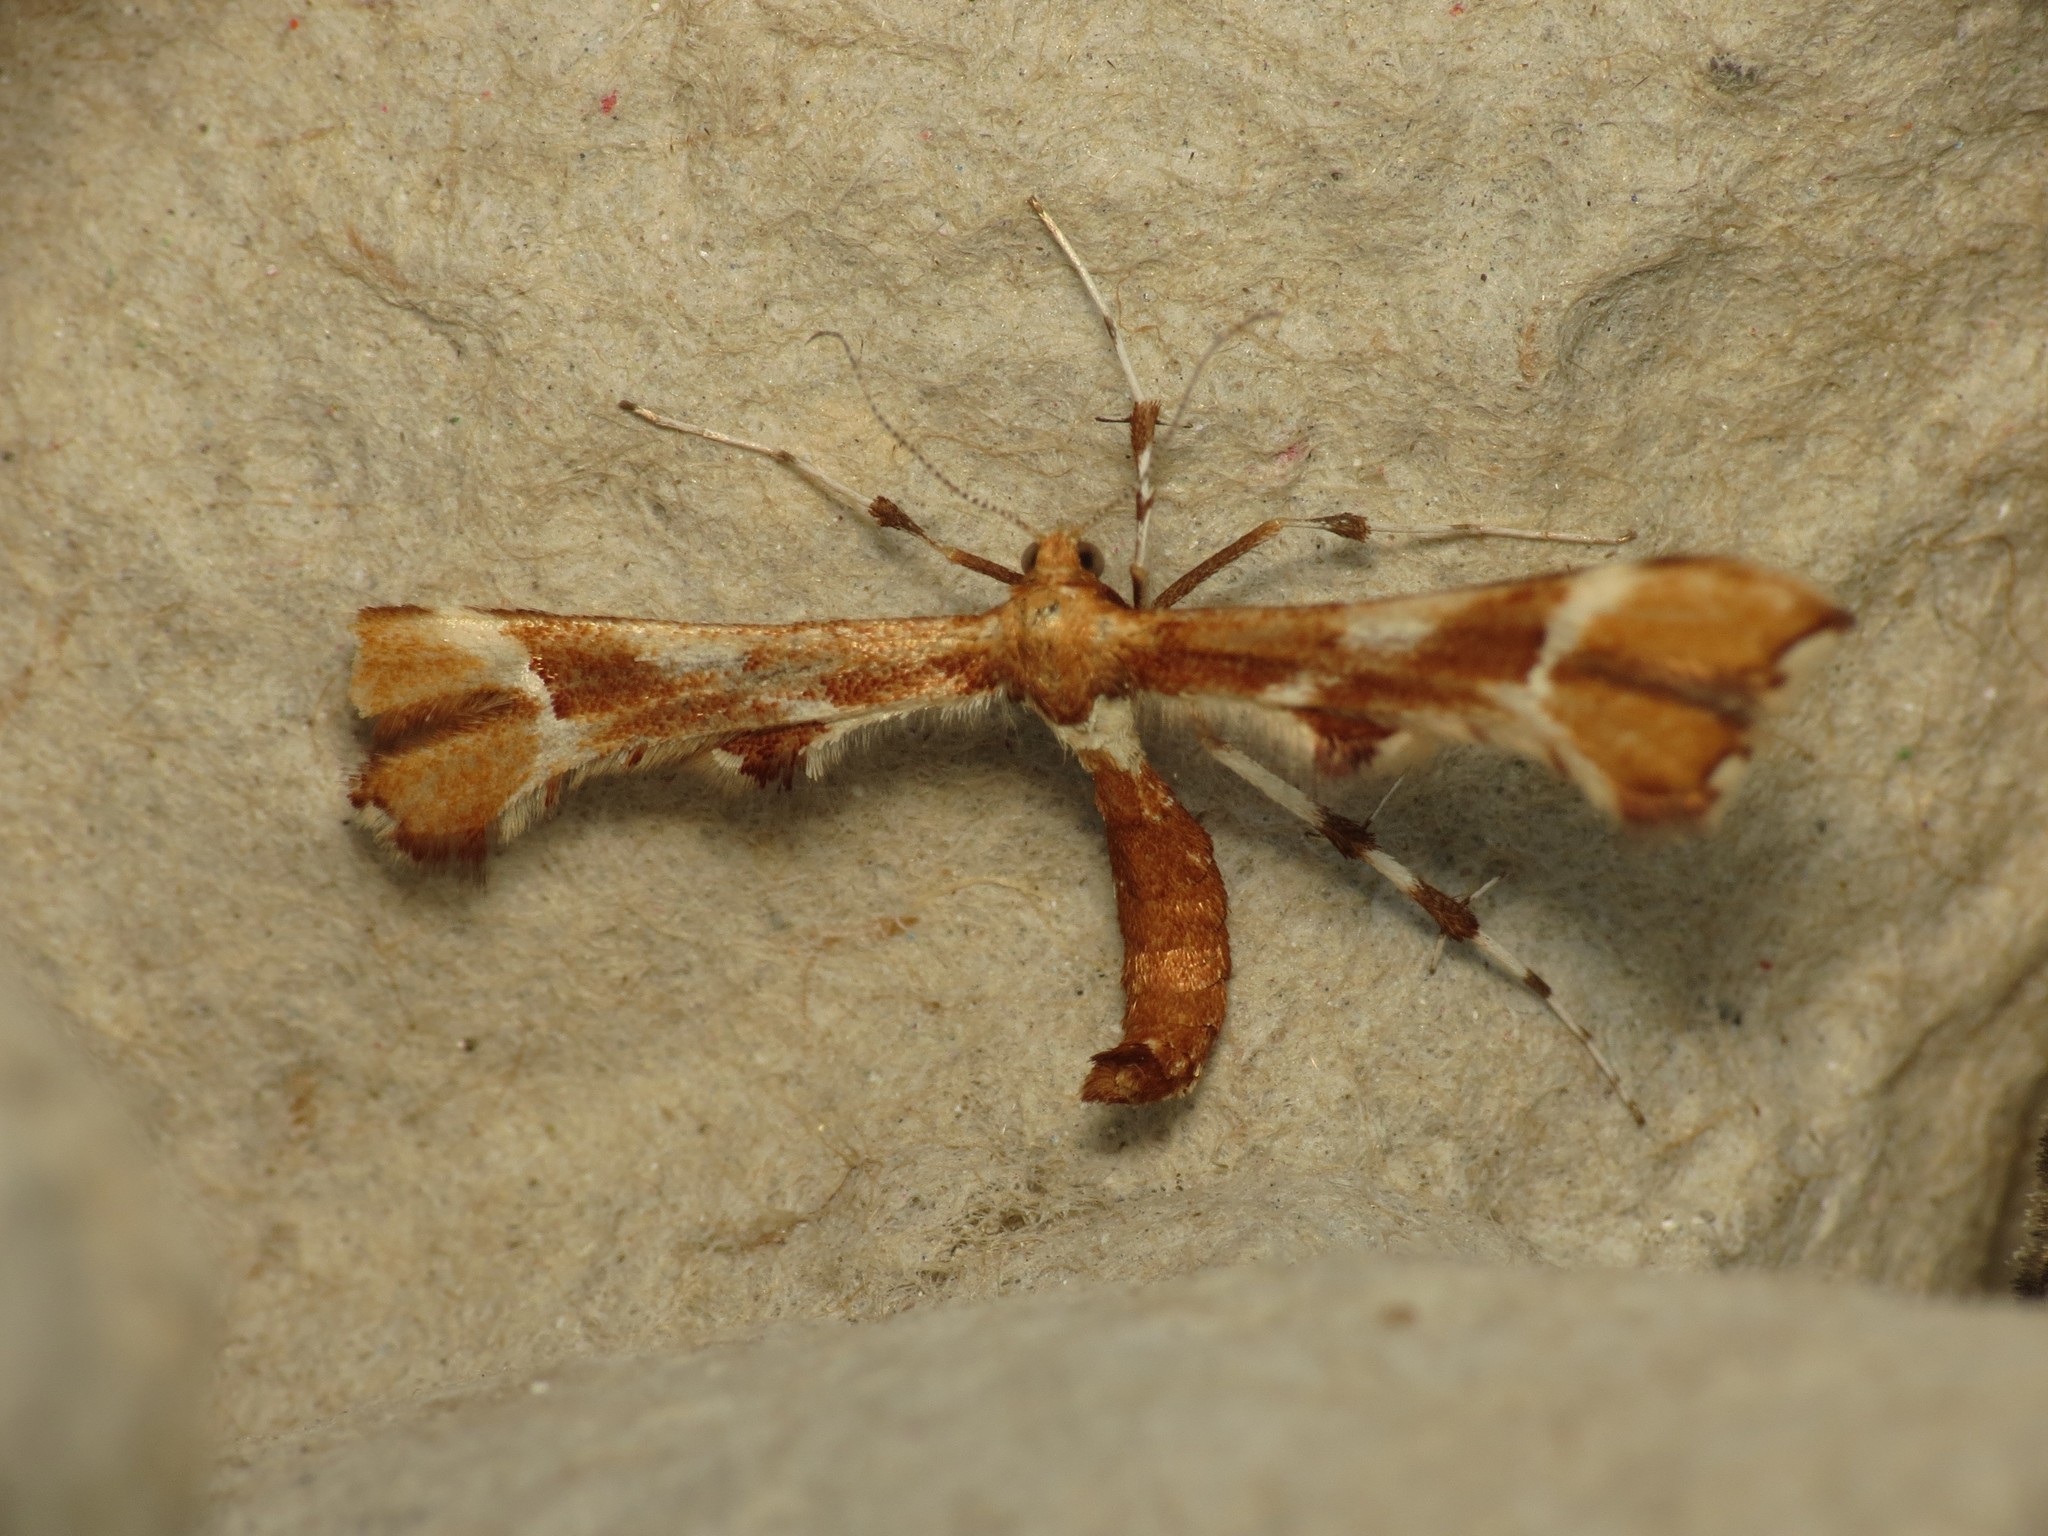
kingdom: Animalia
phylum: Arthropoda
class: Insecta
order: Lepidoptera
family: Pterophoridae
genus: Cnaemidophorus
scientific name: Cnaemidophorus rhododactyla
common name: Rose plume
